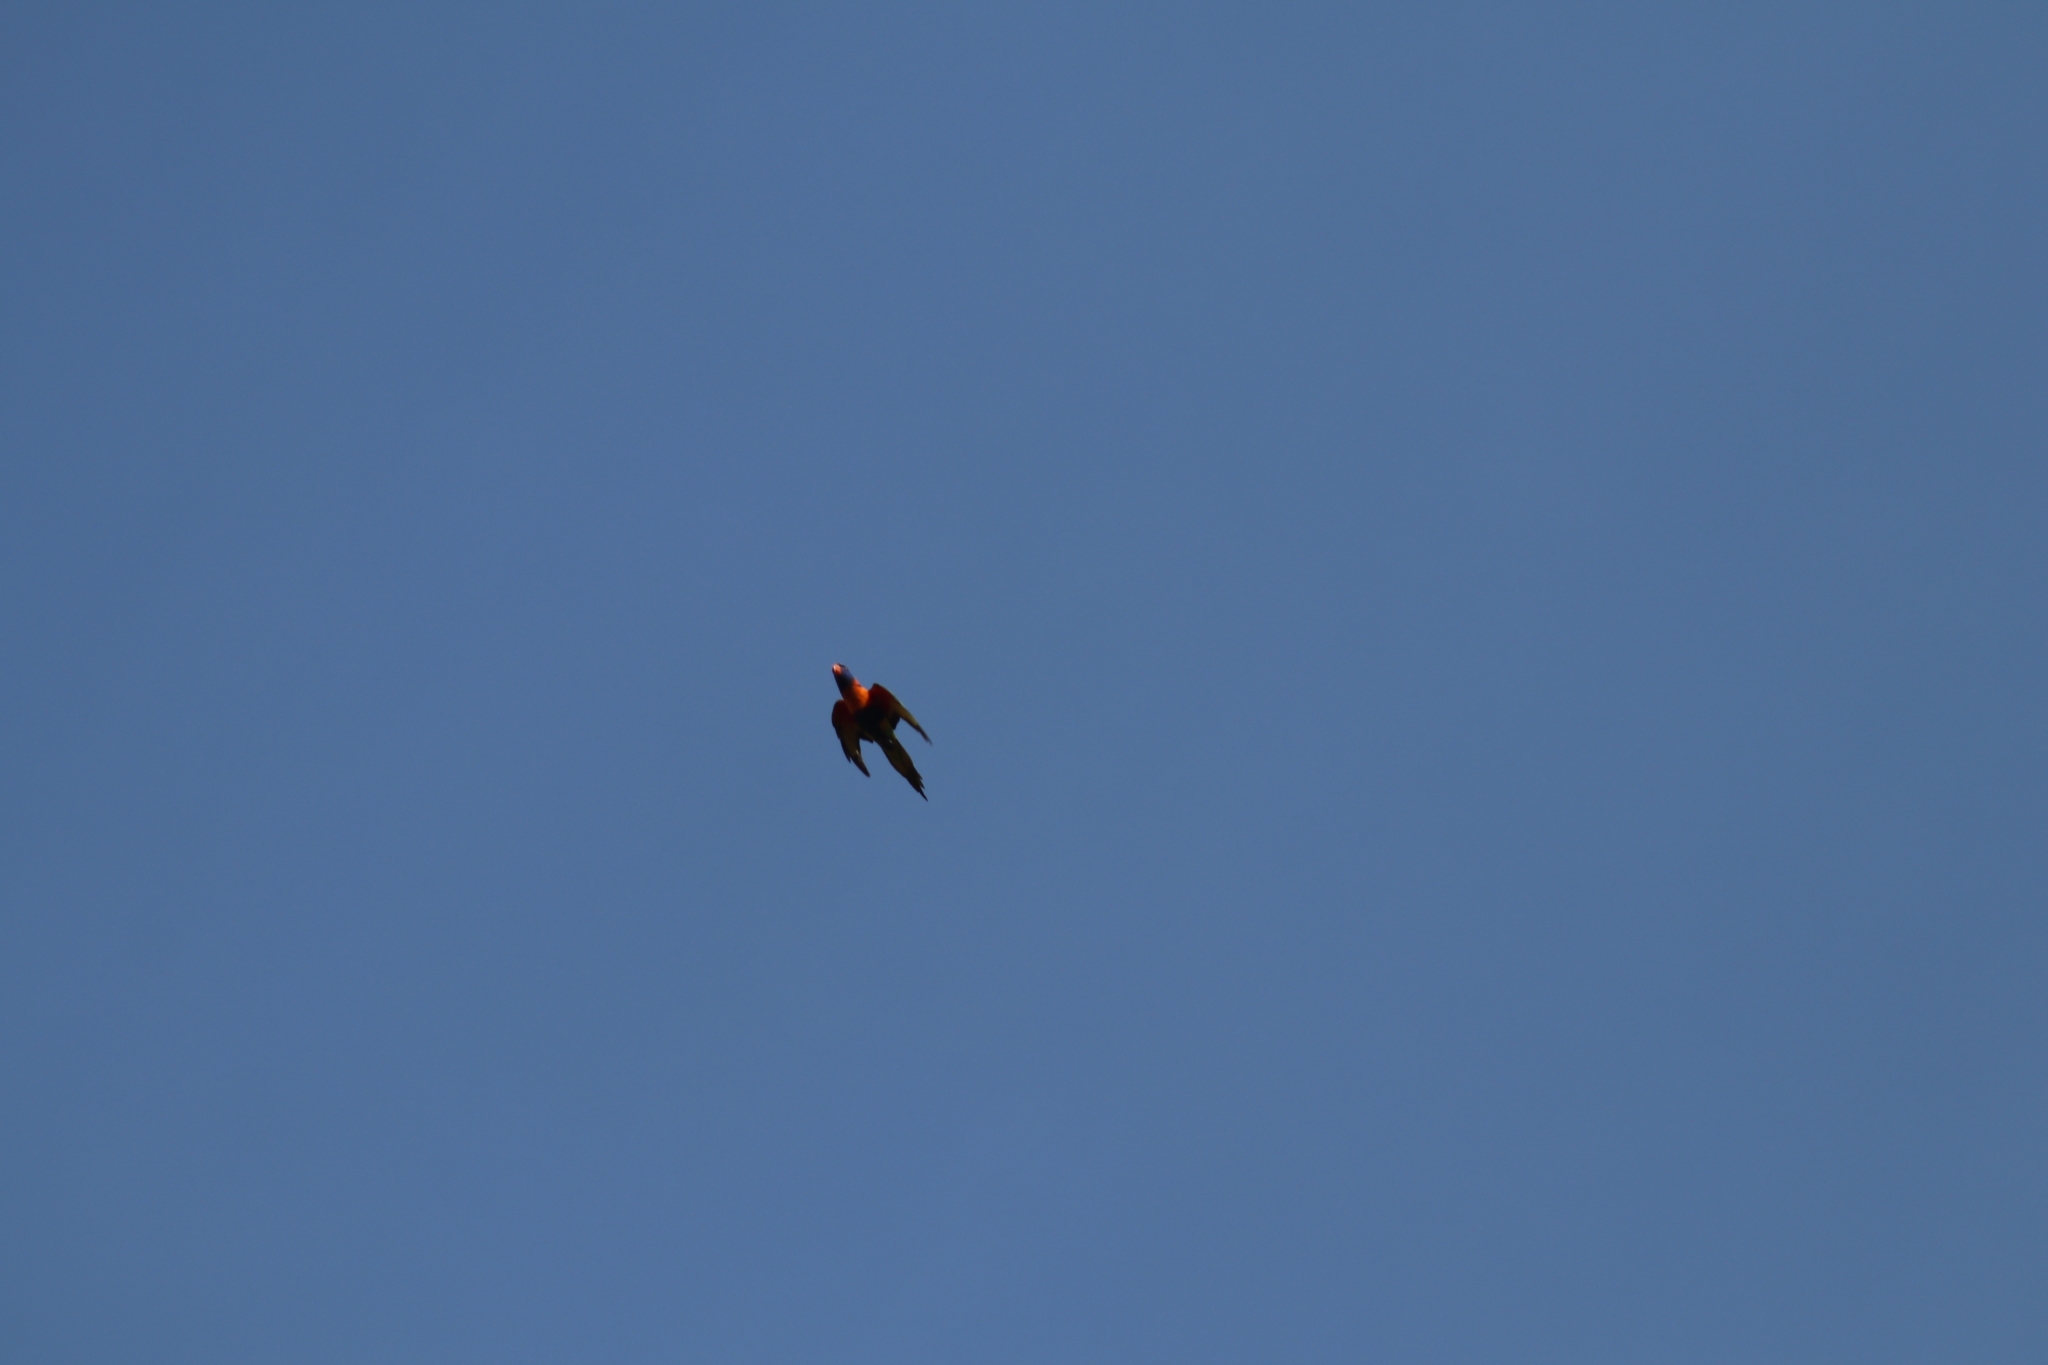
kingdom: Animalia
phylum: Chordata
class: Aves
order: Psittaciformes
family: Psittacidae
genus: Trichoglossus
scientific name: Trichoglossus rubritorquis
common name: Red-collared lorikeet
